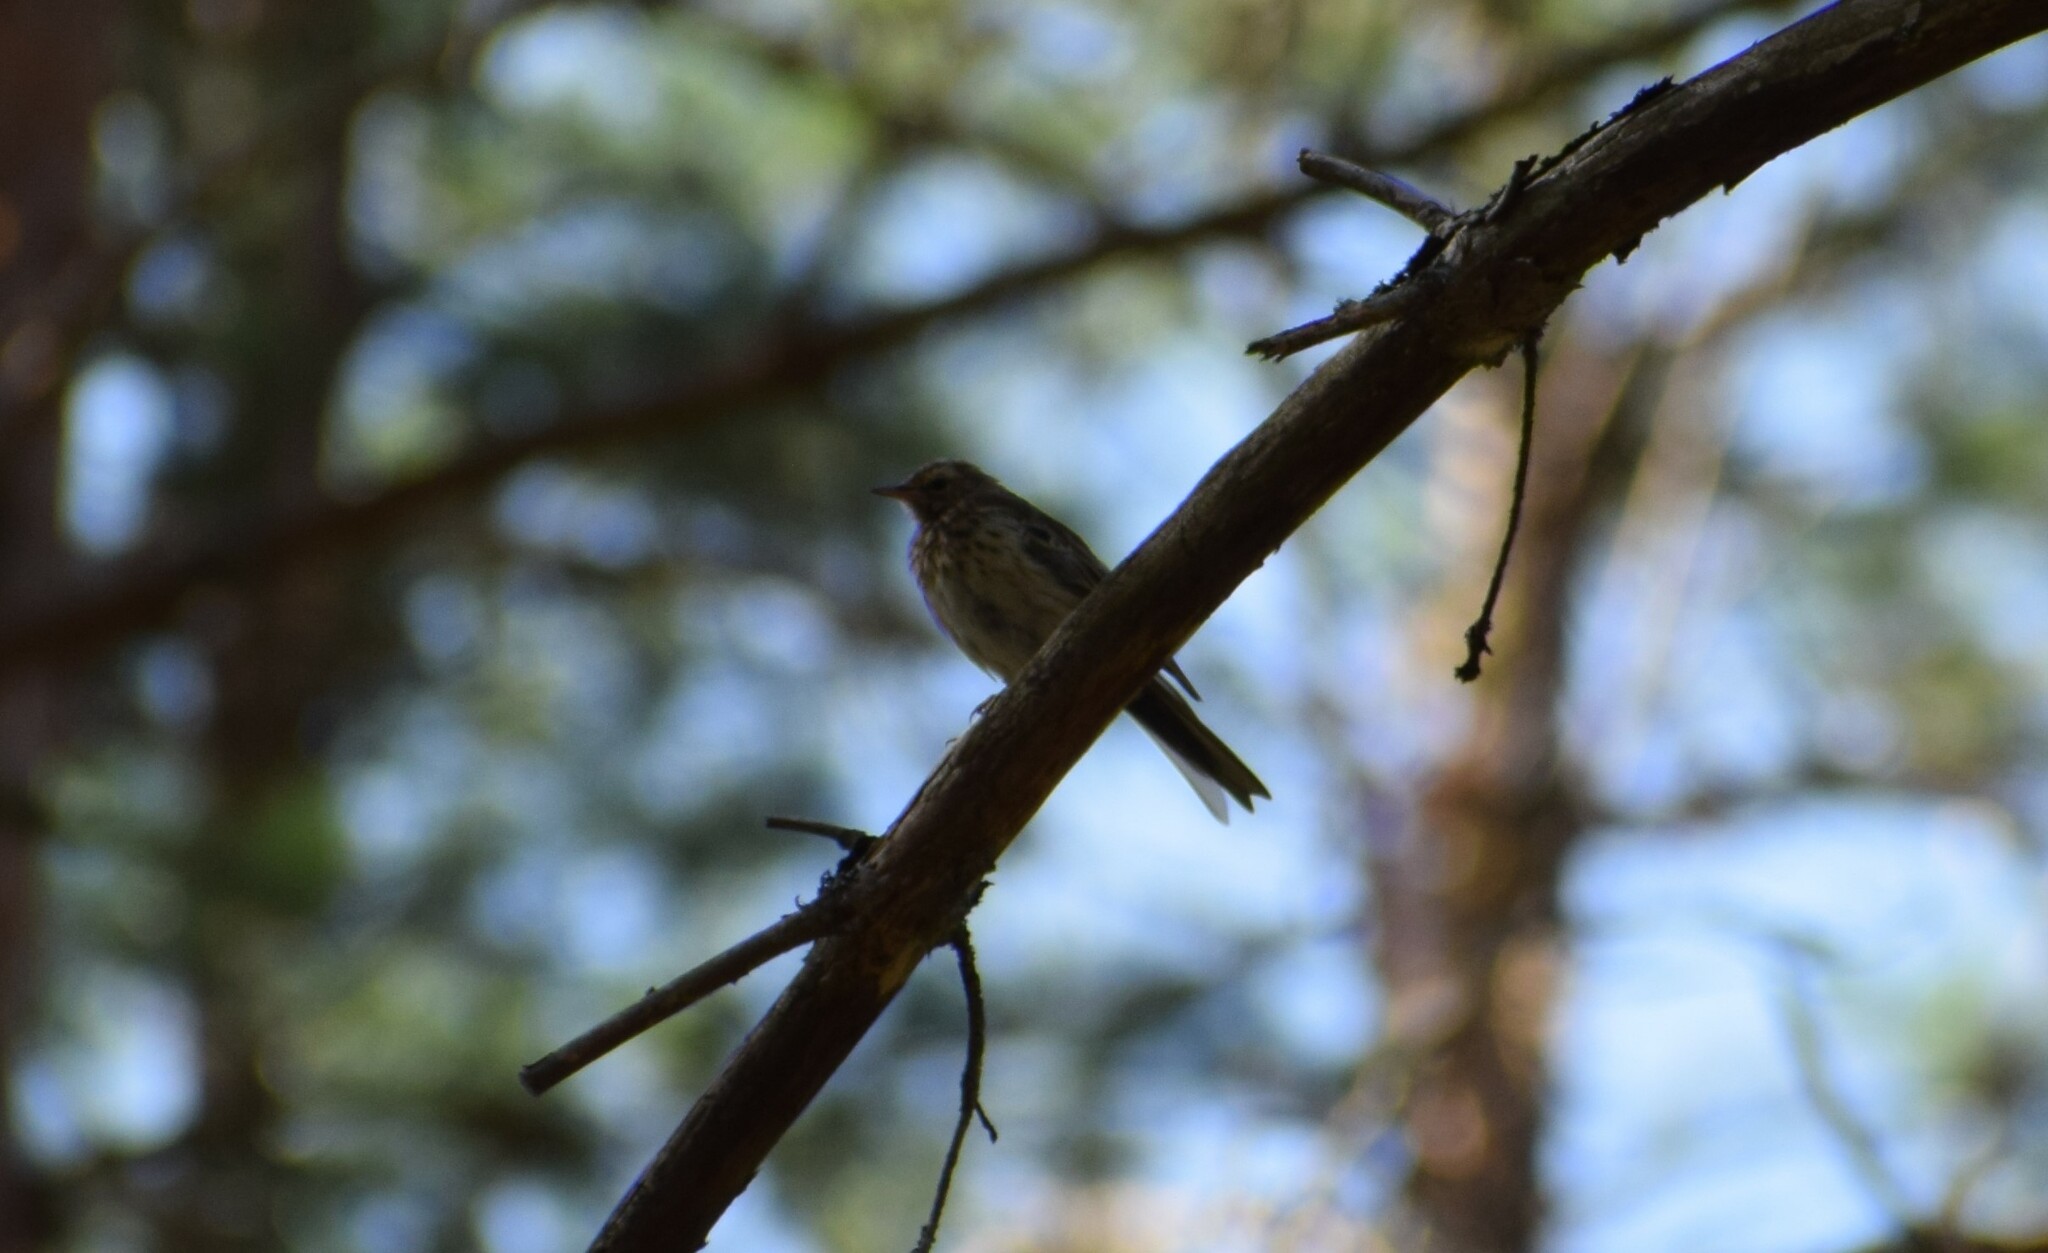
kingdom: Animalia
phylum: Chordata
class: Aves
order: Passeriformes
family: Motacillidae
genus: Anthus
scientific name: Anthus trivialis
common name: Tree pipit
